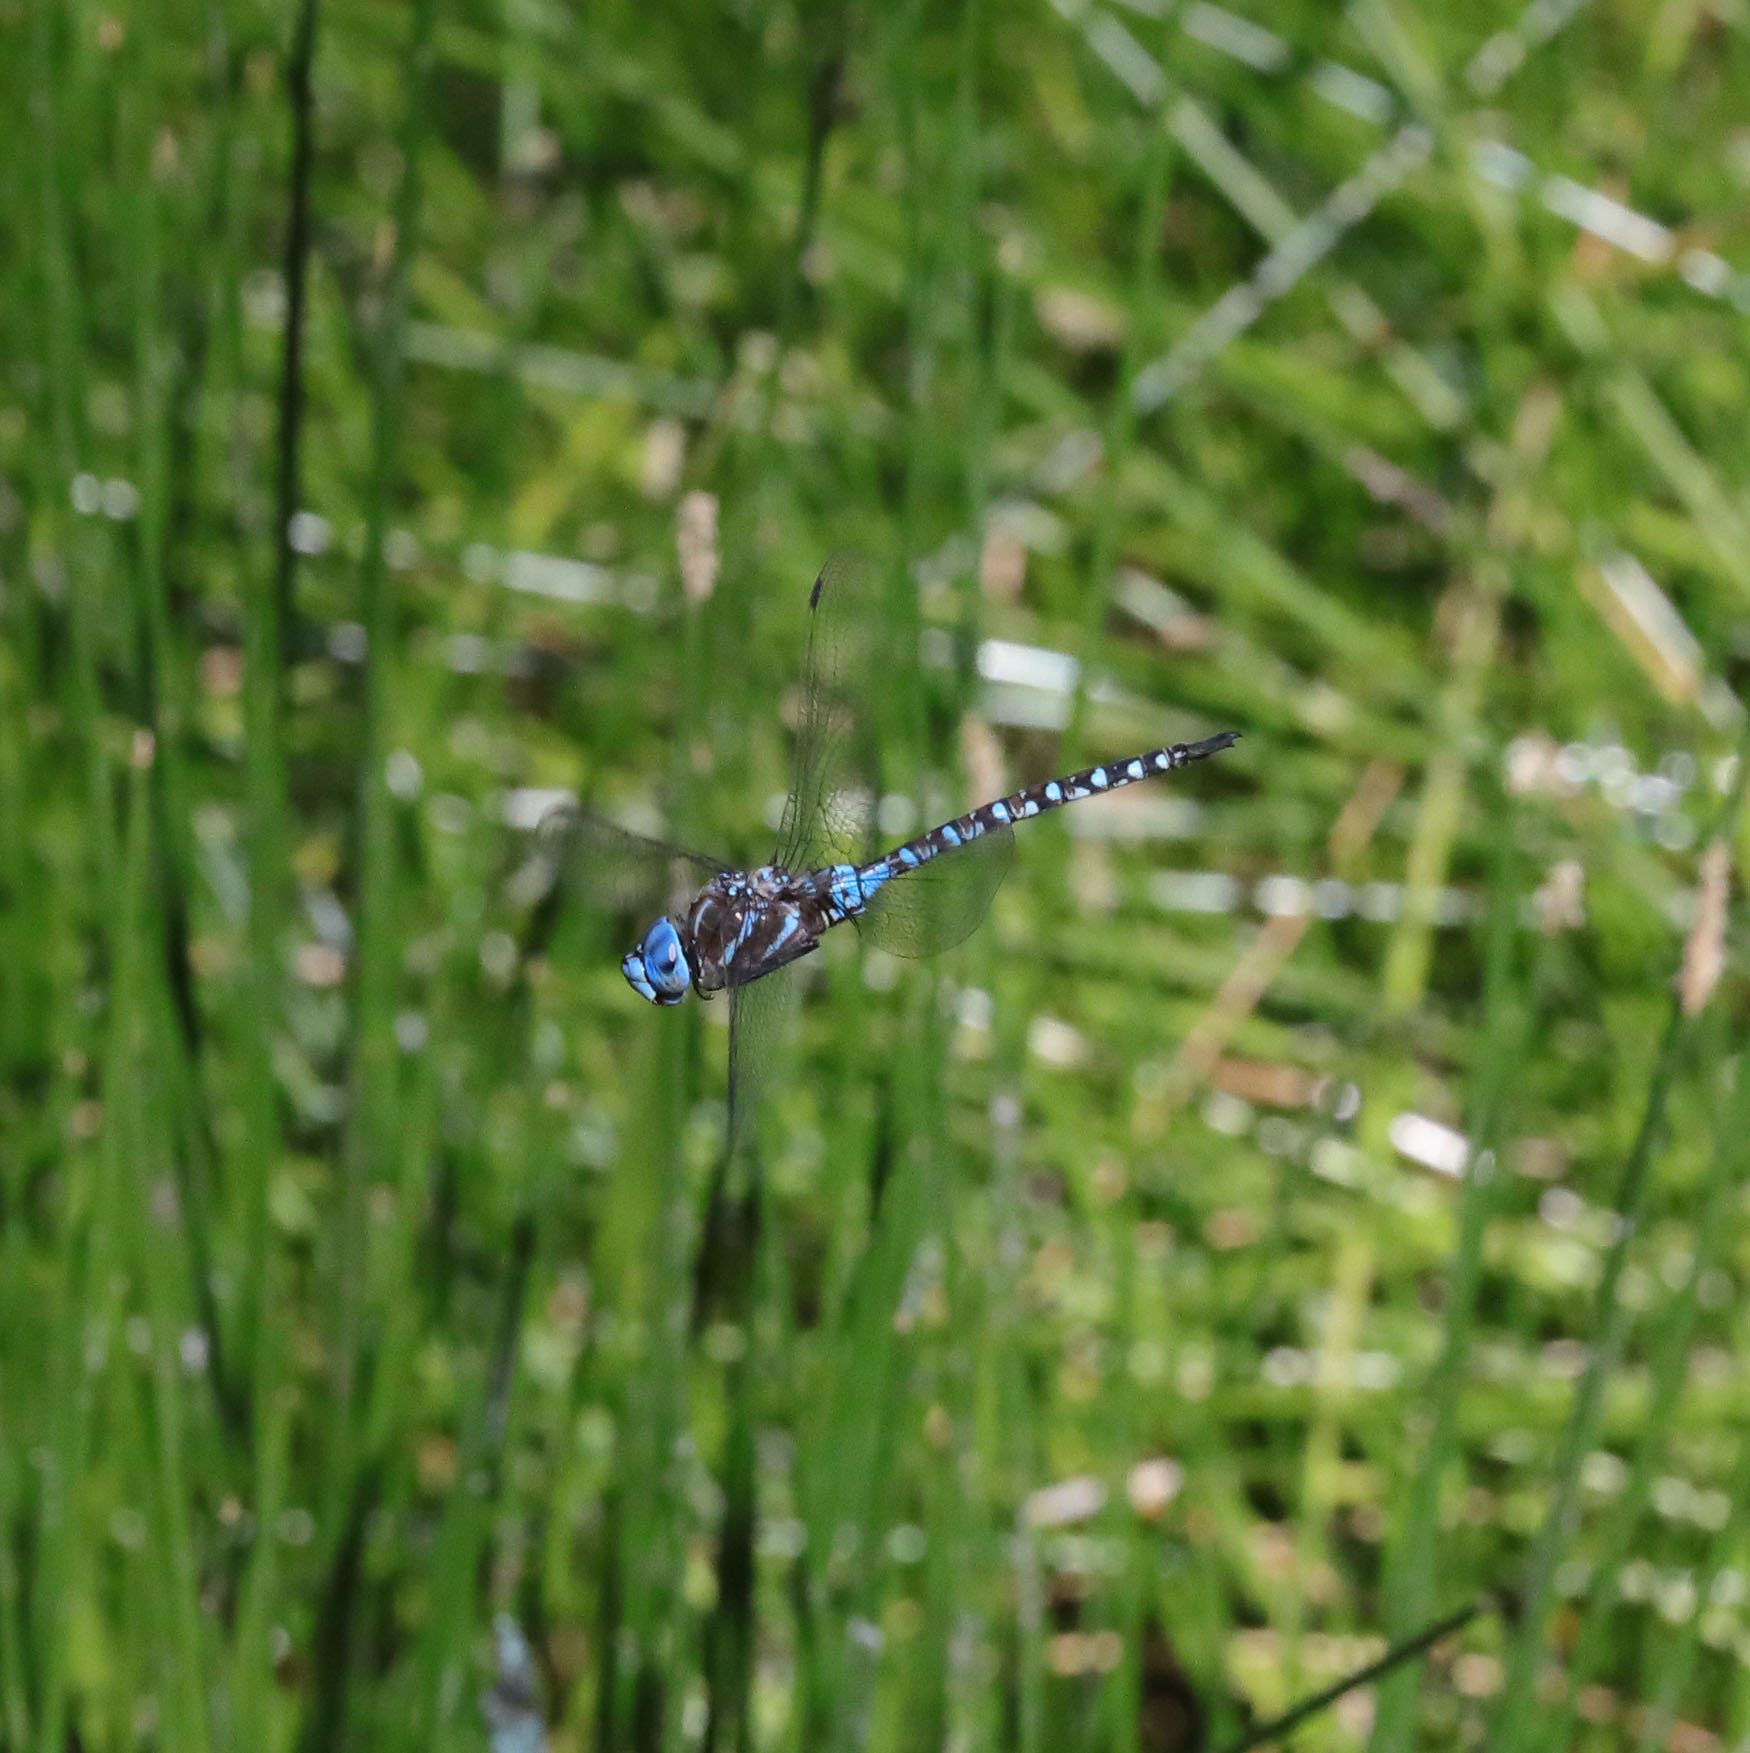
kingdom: Animalia
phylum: Arthropoda
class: Insecta
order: Odonata
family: Aeshnidae
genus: Rhionaeschna
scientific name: Rhionaeschna multicolor
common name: Blue-eyed darner
